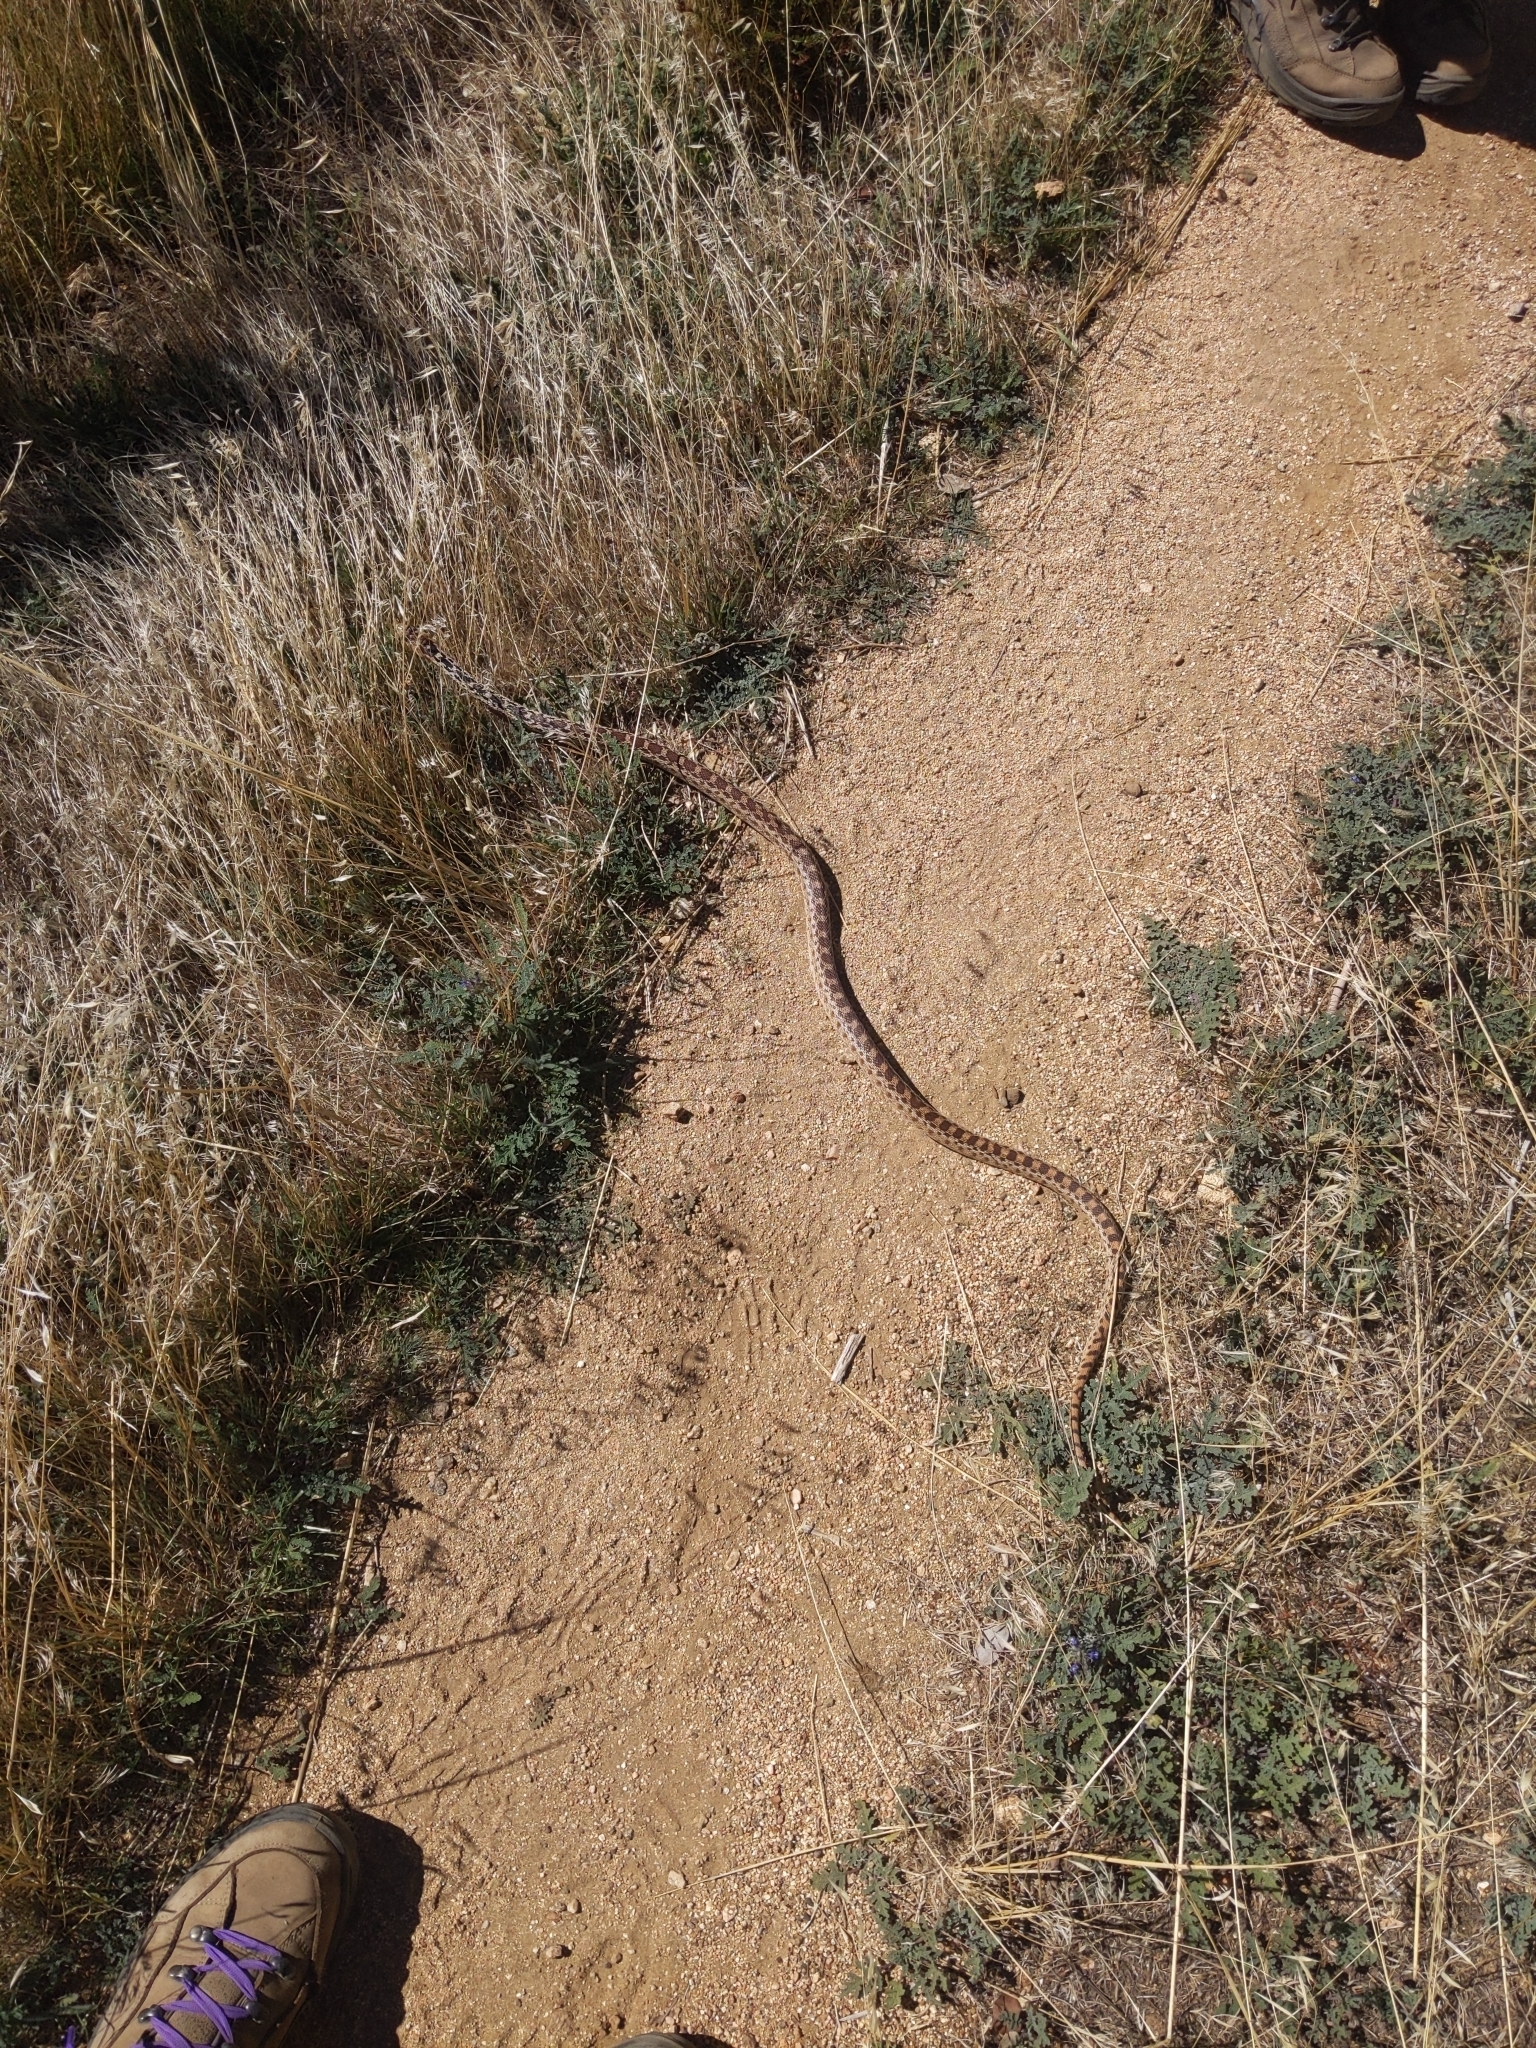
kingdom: Animalia
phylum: Chordata
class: Squamata
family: Colubridae
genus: Pituophis
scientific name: Pituophis catenifer
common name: Gopher snake
